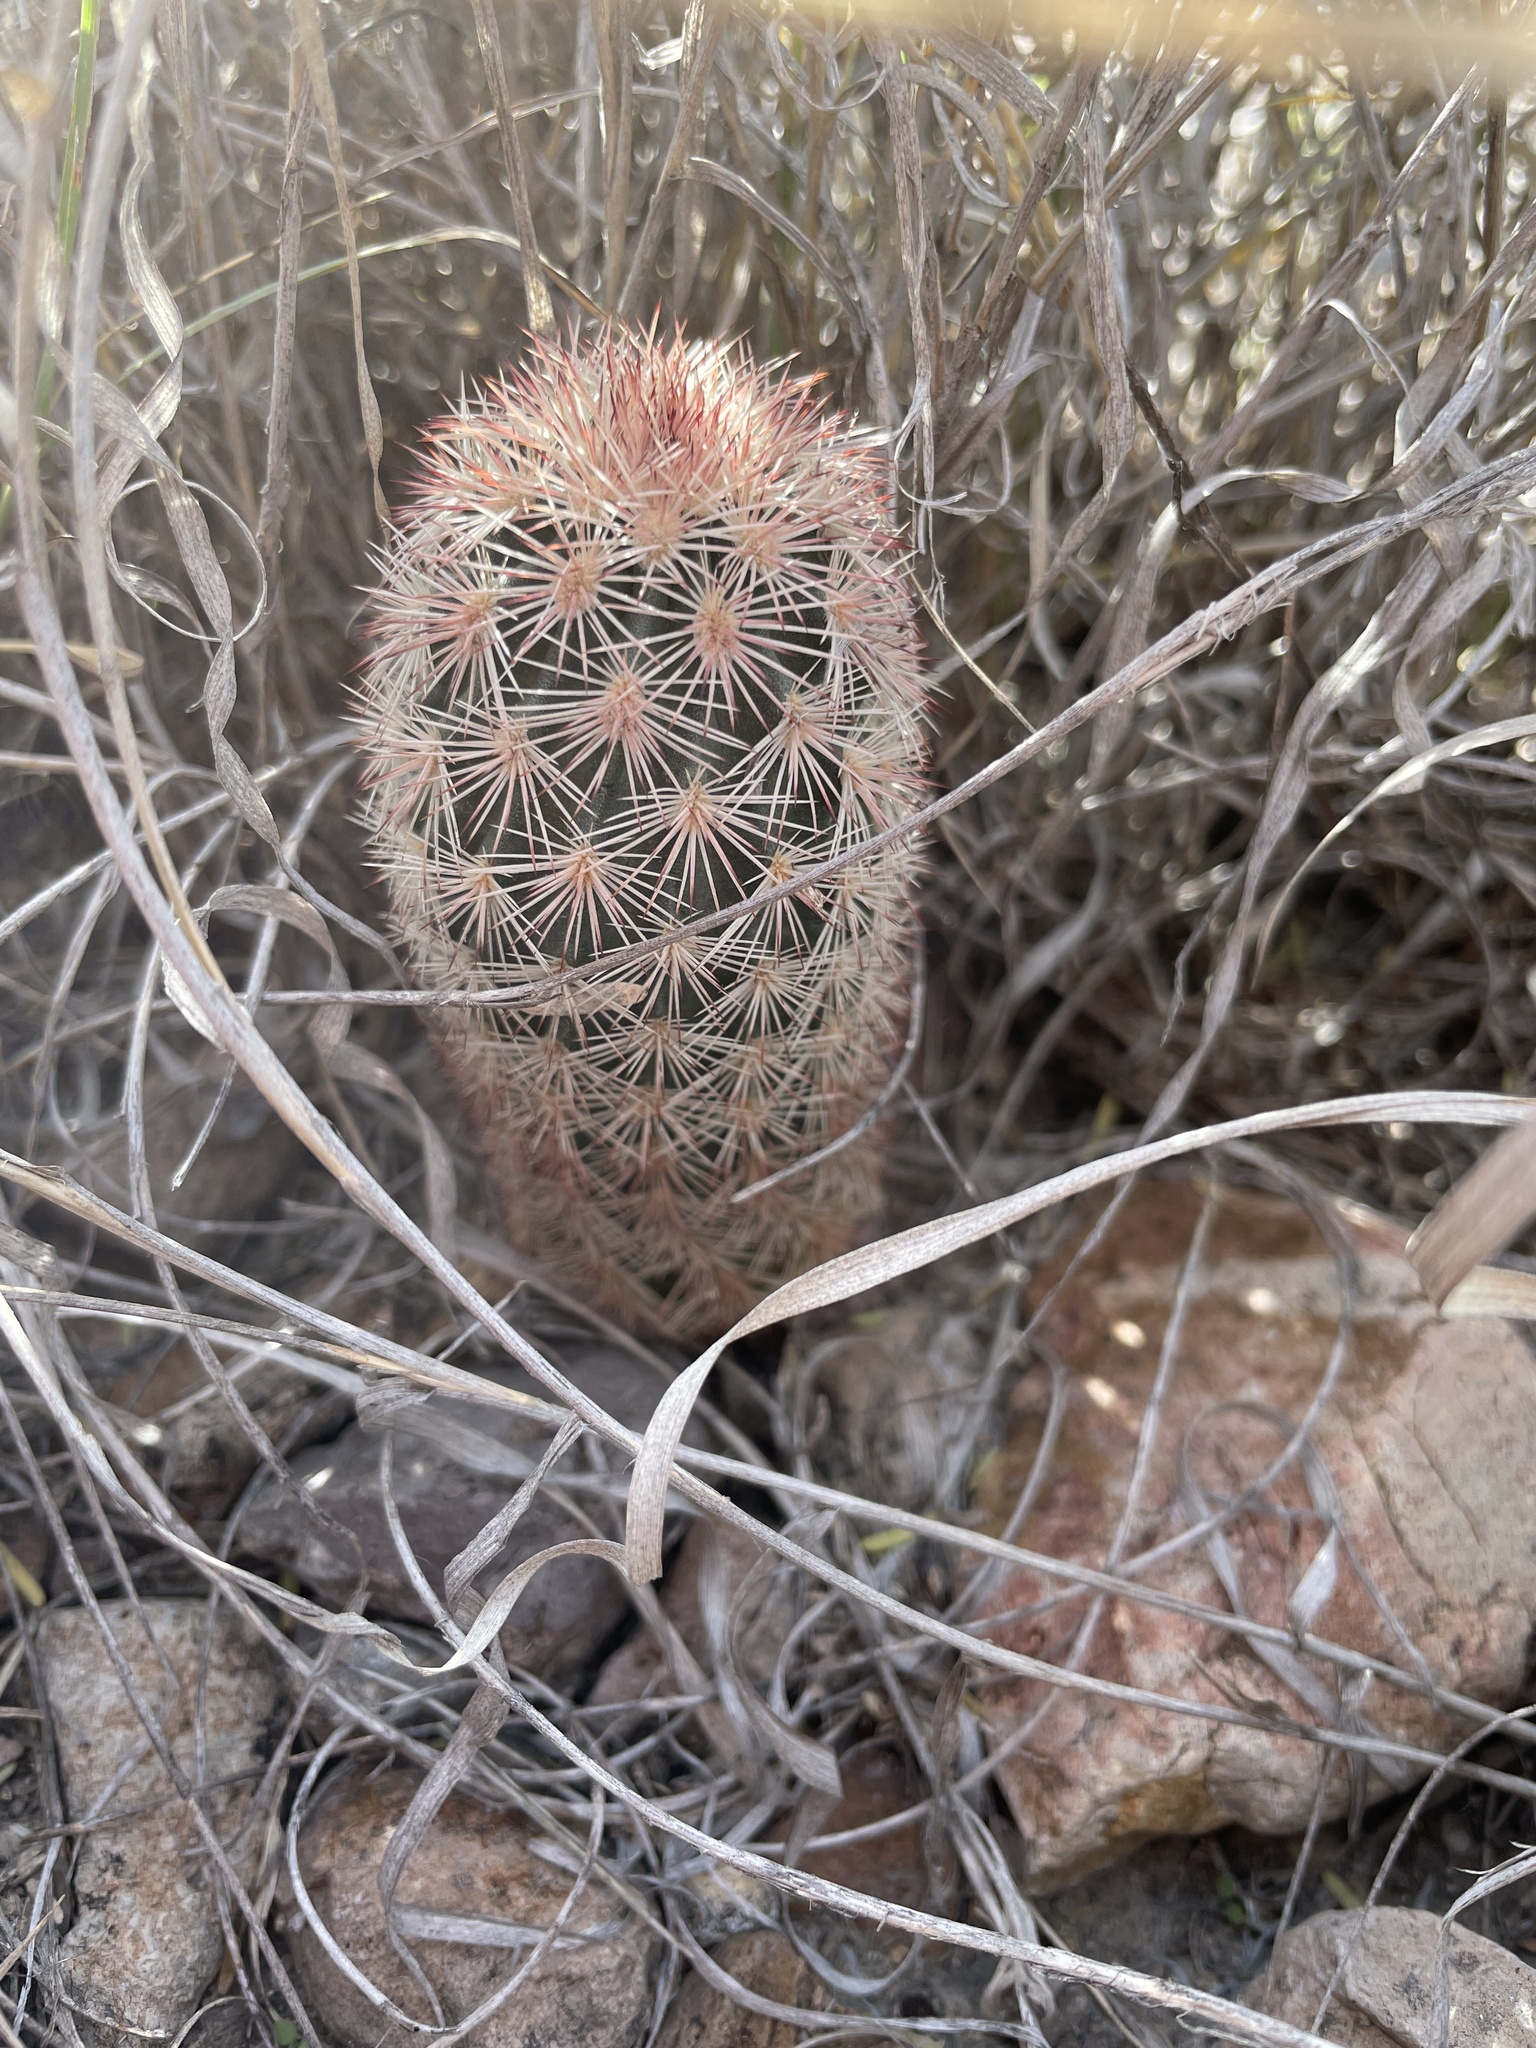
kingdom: Plantae
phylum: Tracheophyta
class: Magnoliopsida
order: Caryophyllales
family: Cactaceae
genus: Echinocereus
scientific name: Echinocereus dasyacanthus
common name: Spiny hedgehog cactus
